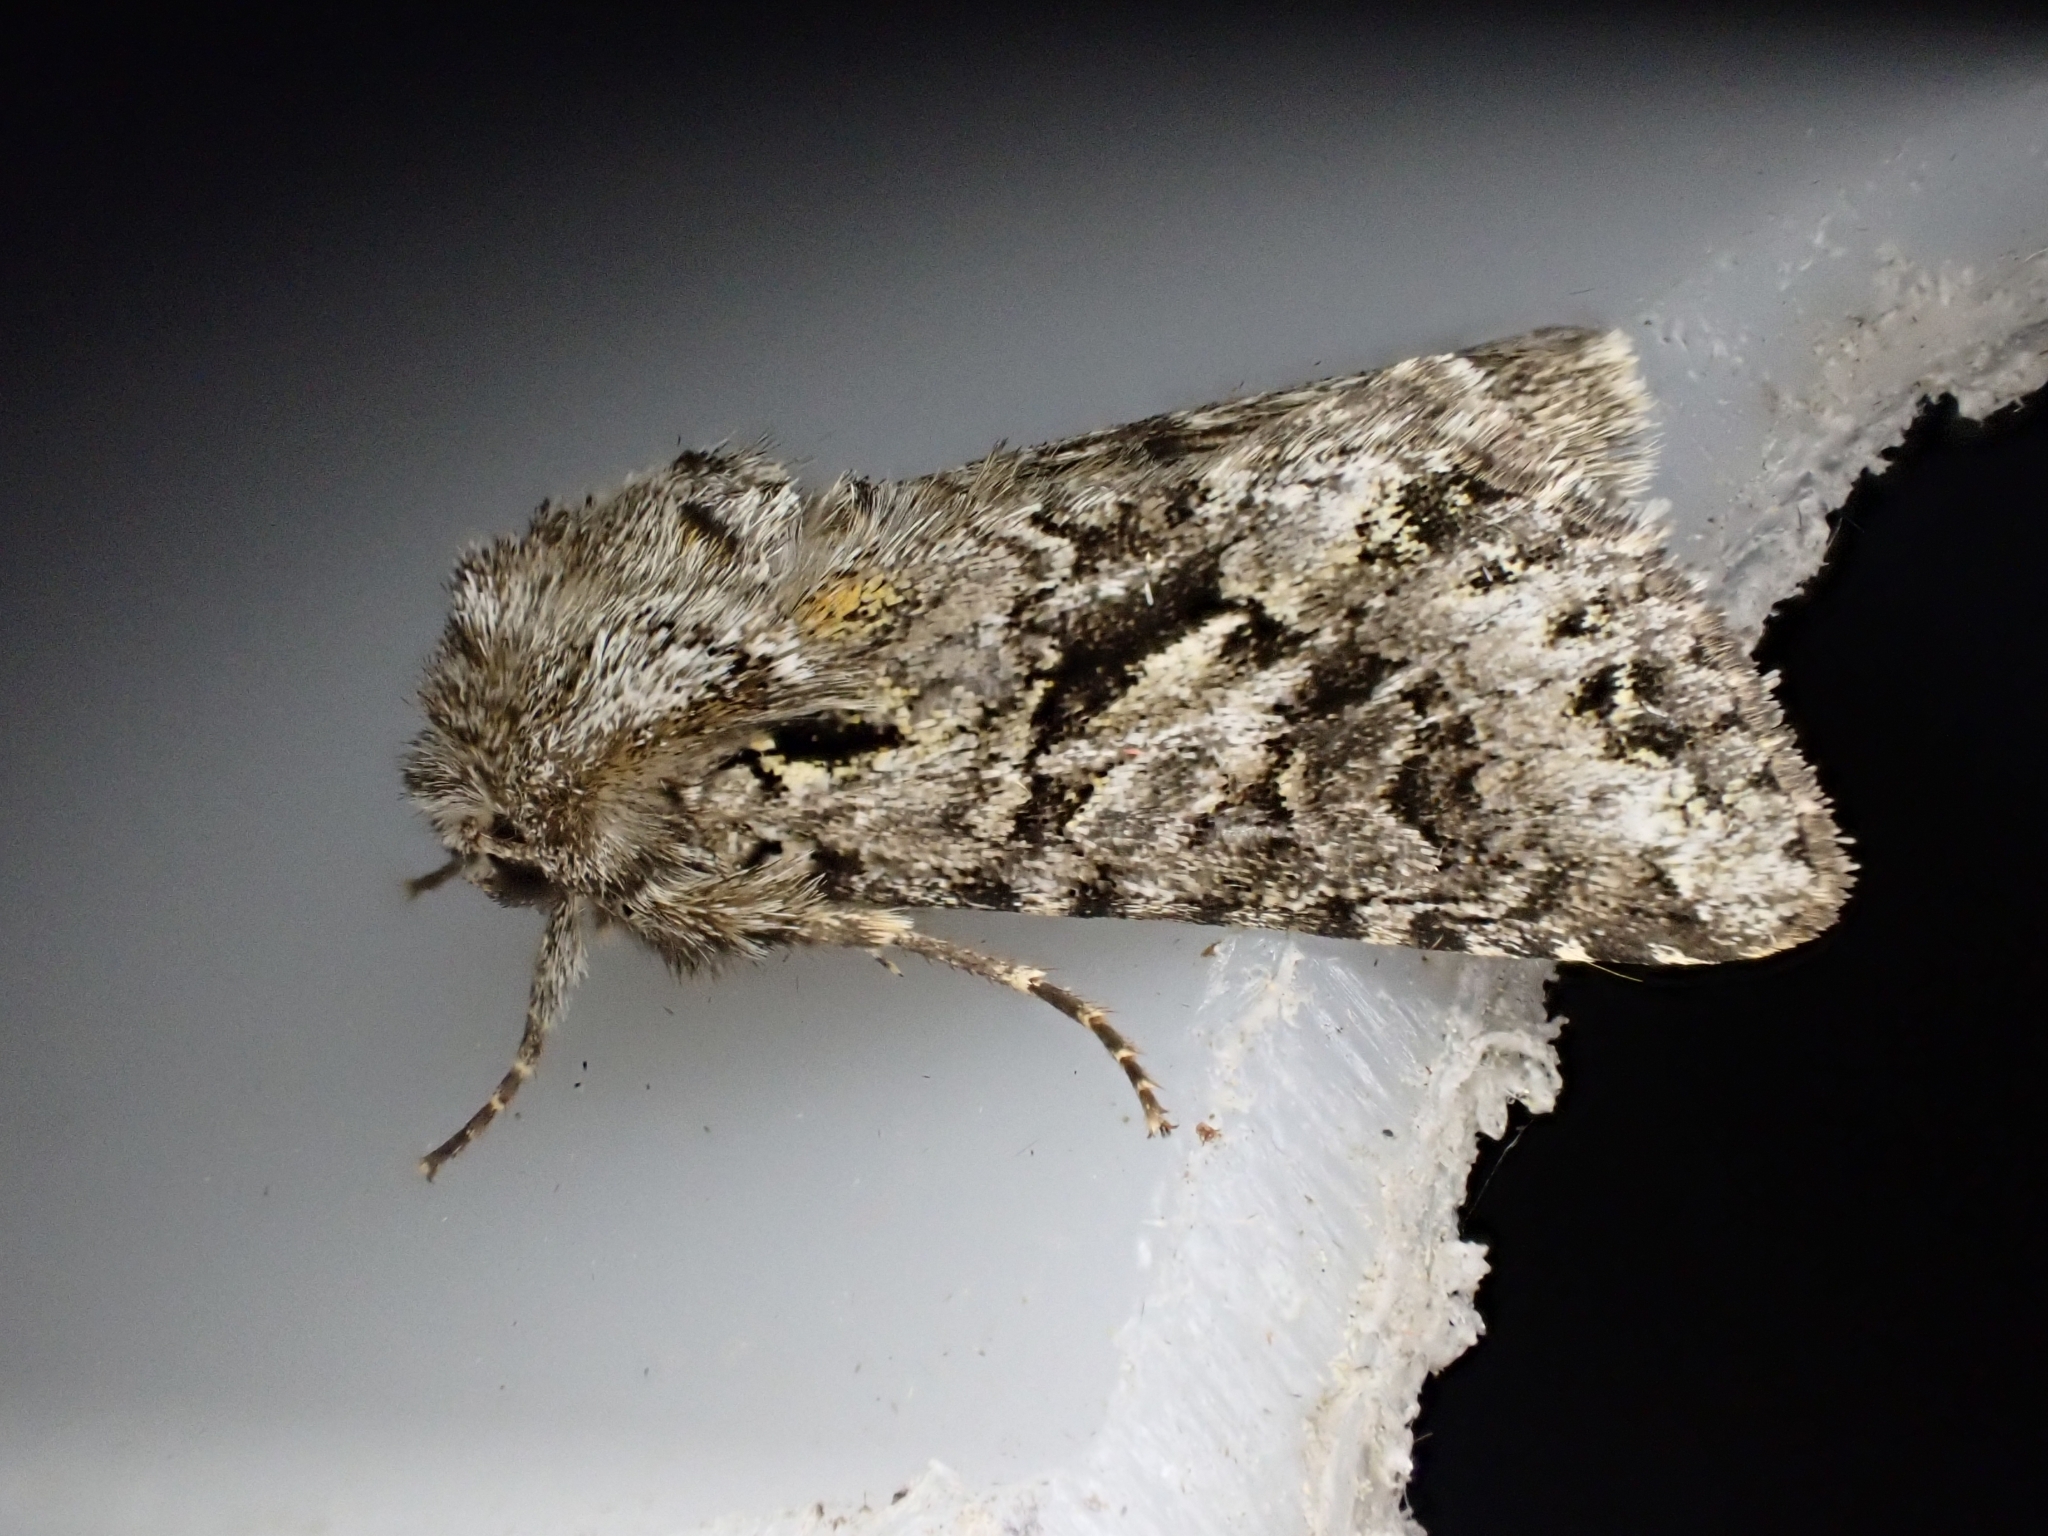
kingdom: Animalia
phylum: Arthropoda
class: Insecta
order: Lepidoptera
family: Noctuidae
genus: Hada
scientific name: Hada plebeja
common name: Shears
